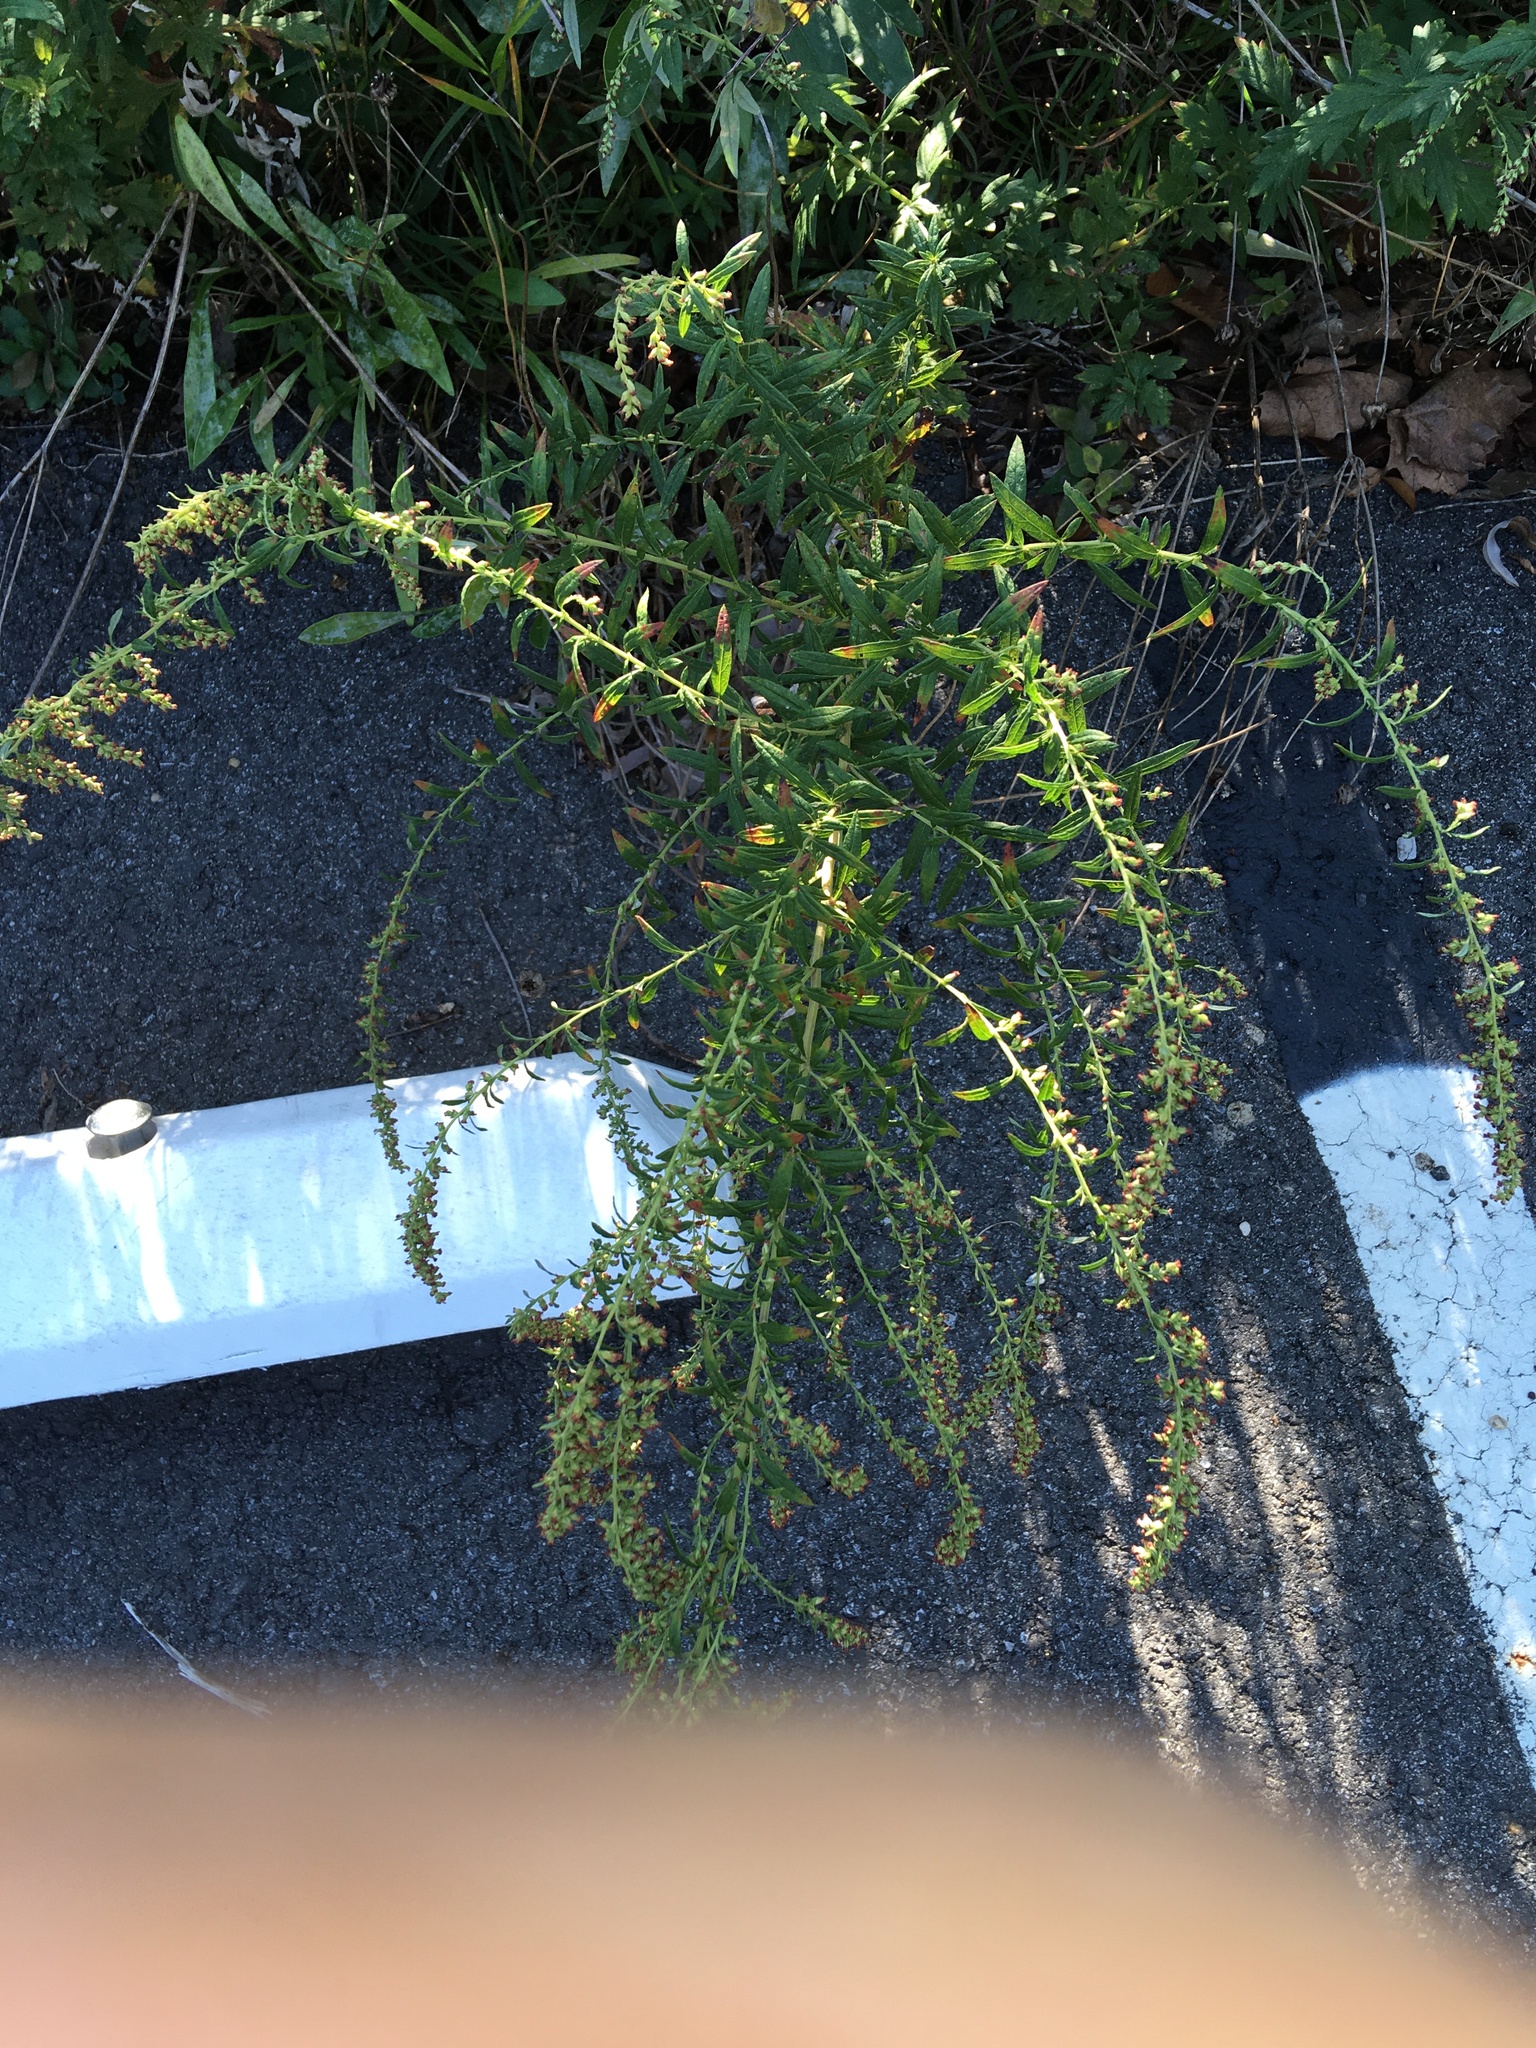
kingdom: Plantae
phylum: Tracheophyta
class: Magnoliopsida
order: Asterales
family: Asteraceae
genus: Artemisia
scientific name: Artemisia vulgaris
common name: Mugwort
